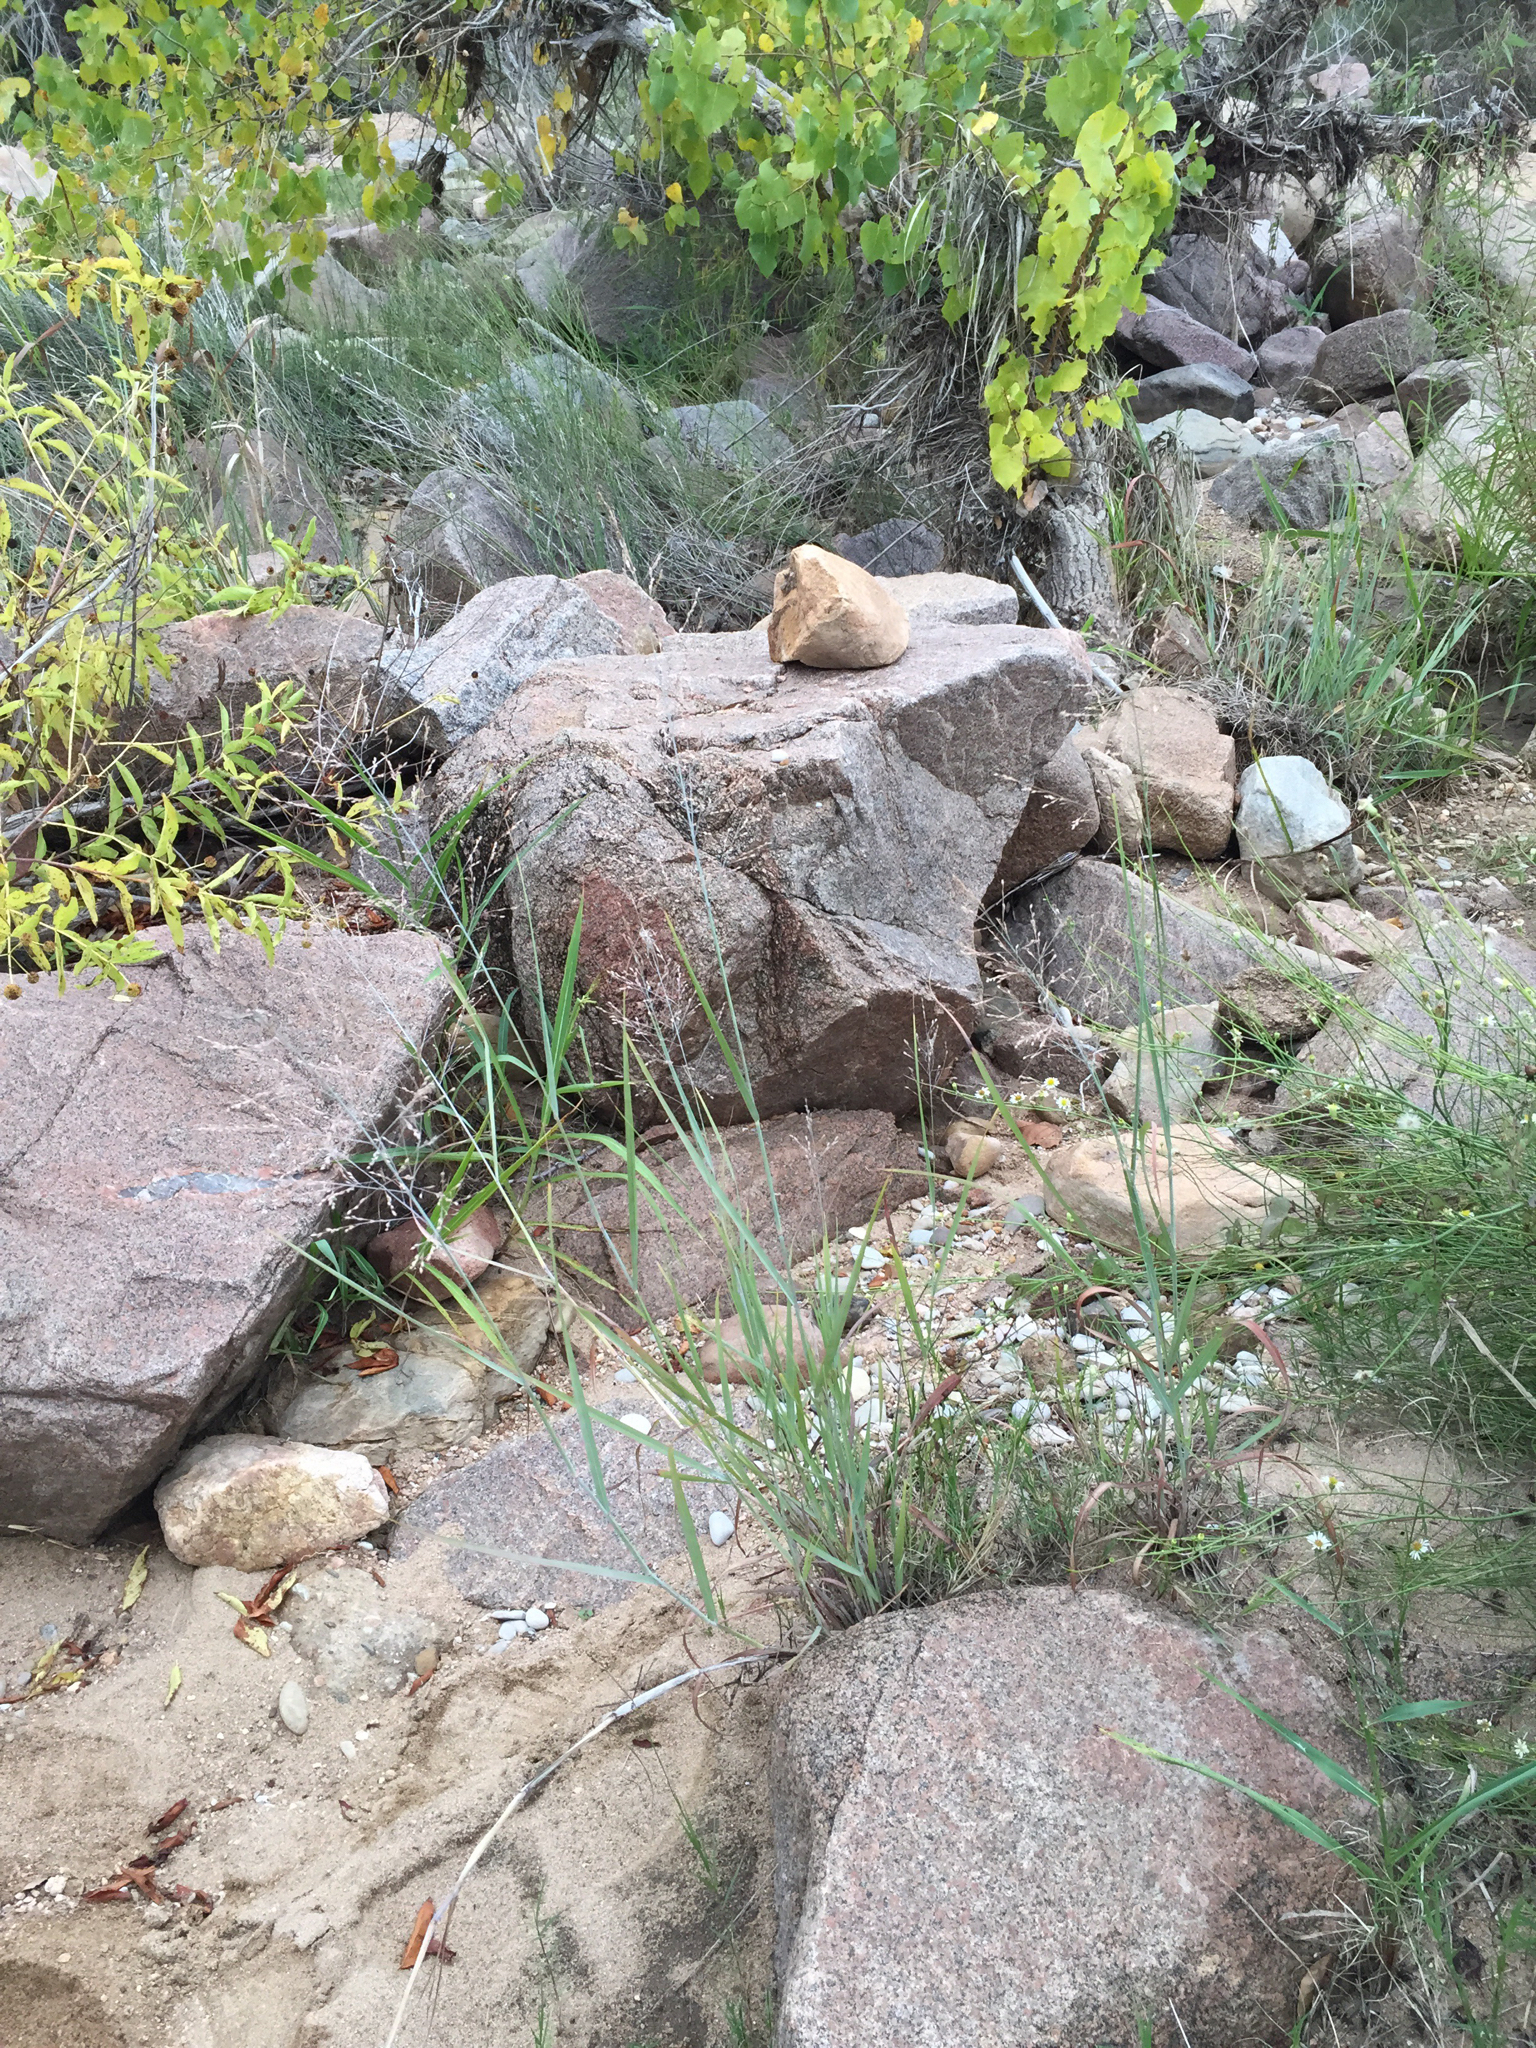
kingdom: Plantae
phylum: Tracheophyta
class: Liliopsida
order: Poales
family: Poaceae
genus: Panicum
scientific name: Panicum virgatum
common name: Switchgrass
